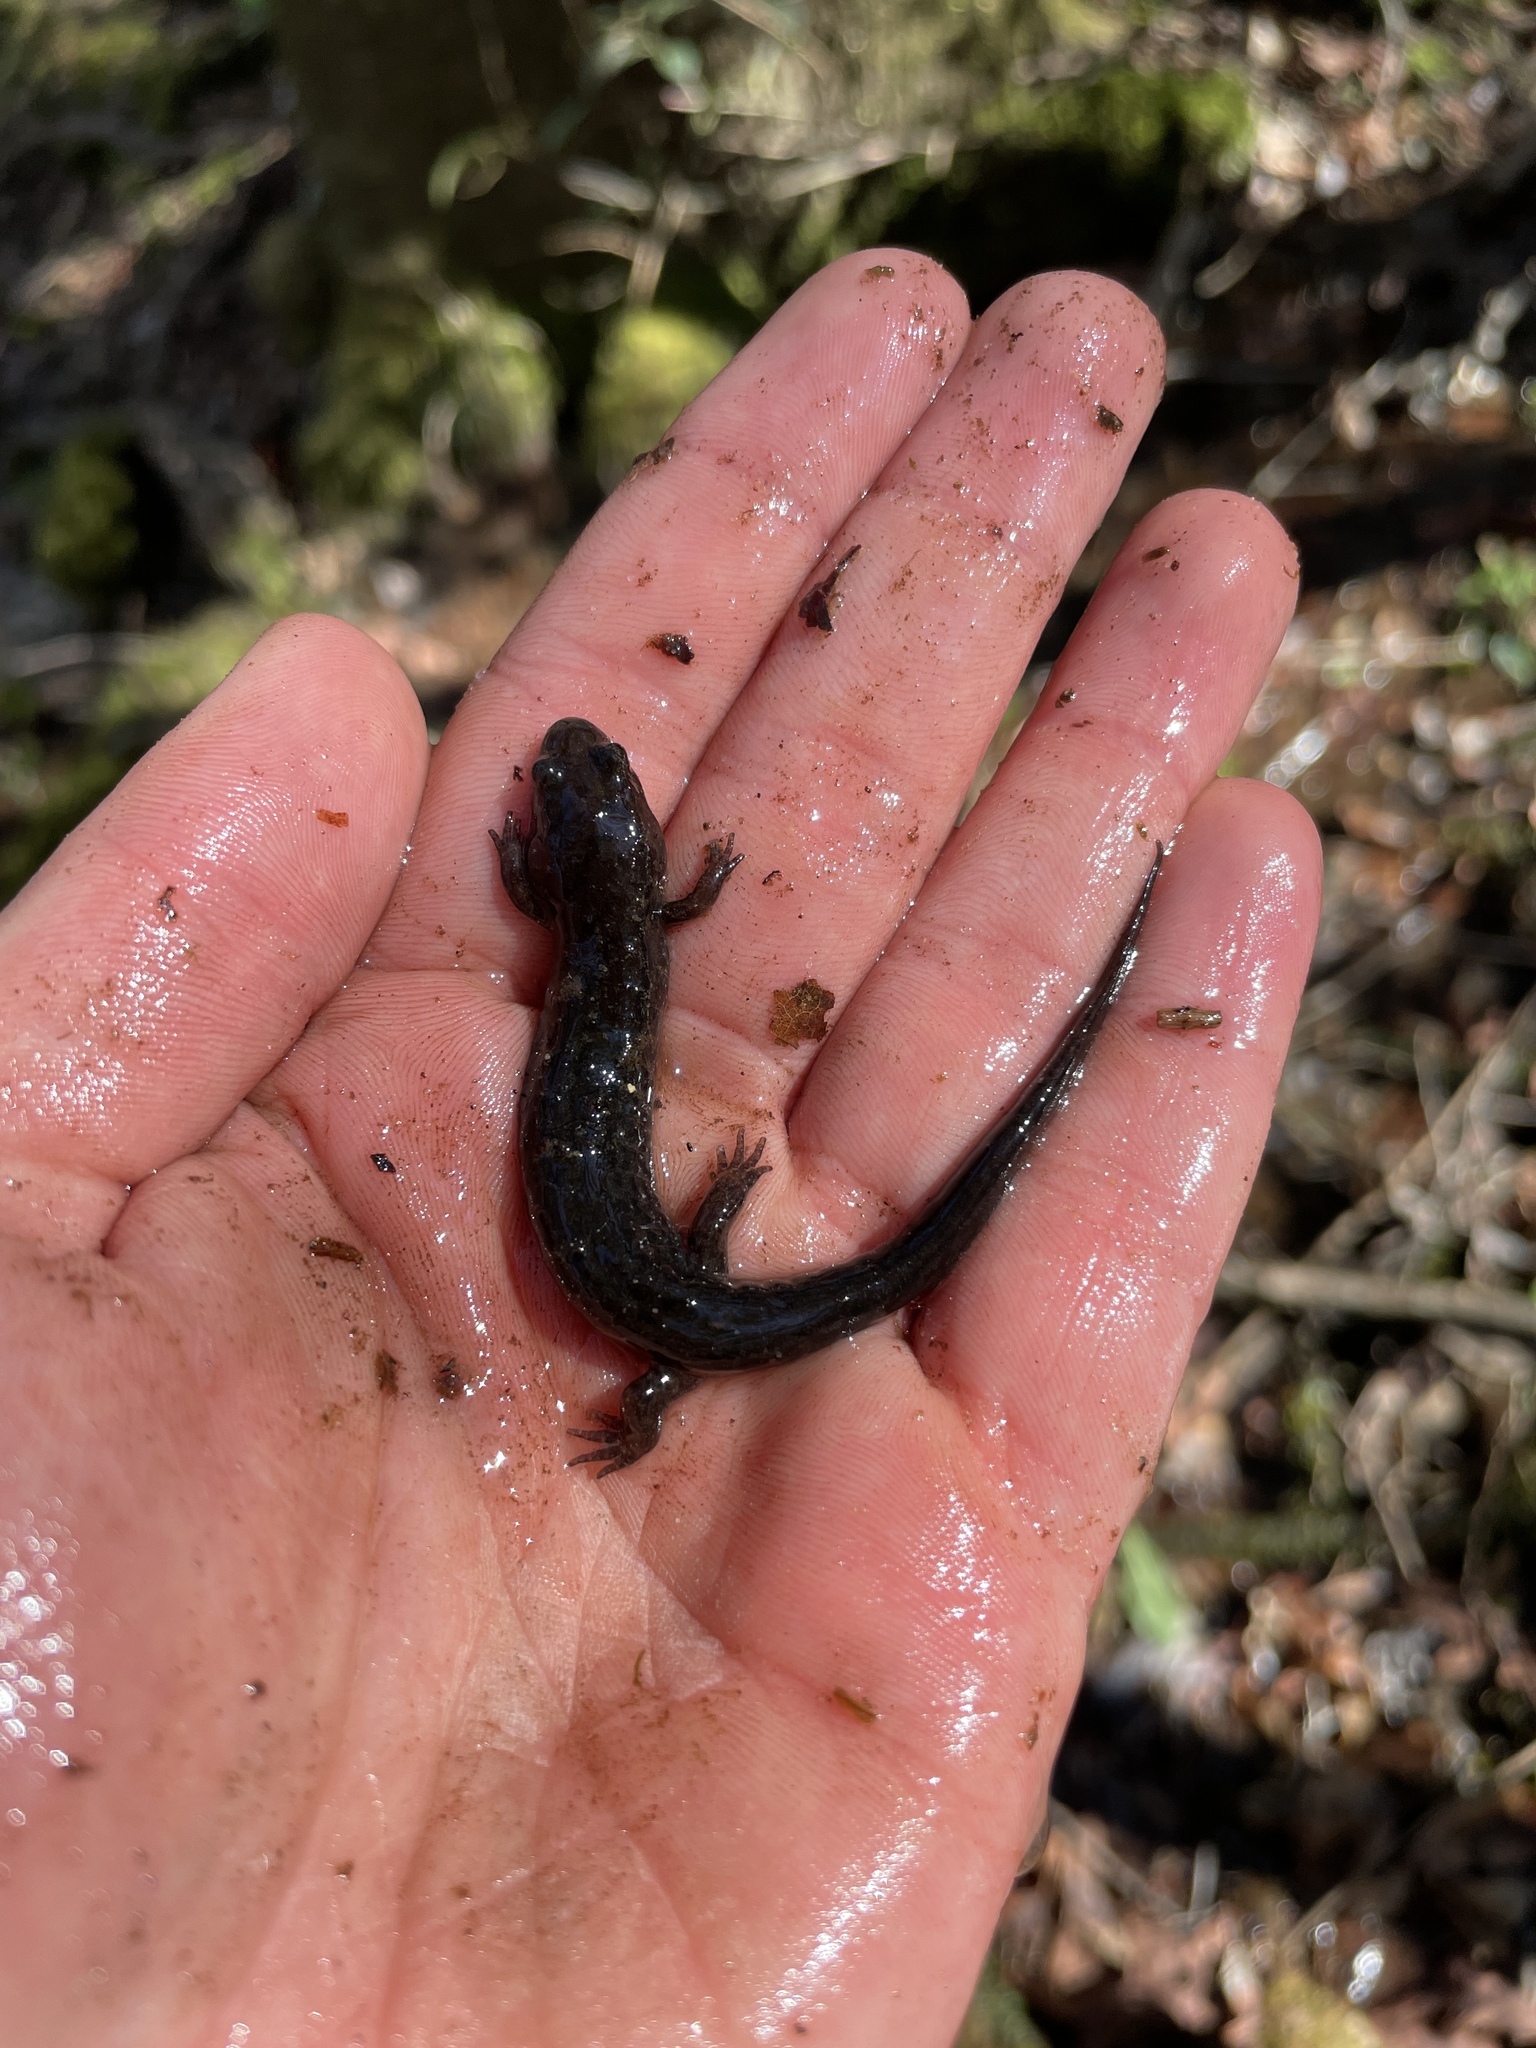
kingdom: Animalia
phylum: Chordata
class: Amphibia
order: Caudata
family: Plethodontidae
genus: Desmognathus
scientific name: Desmognathus conanti
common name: Spotted dusky salamander
